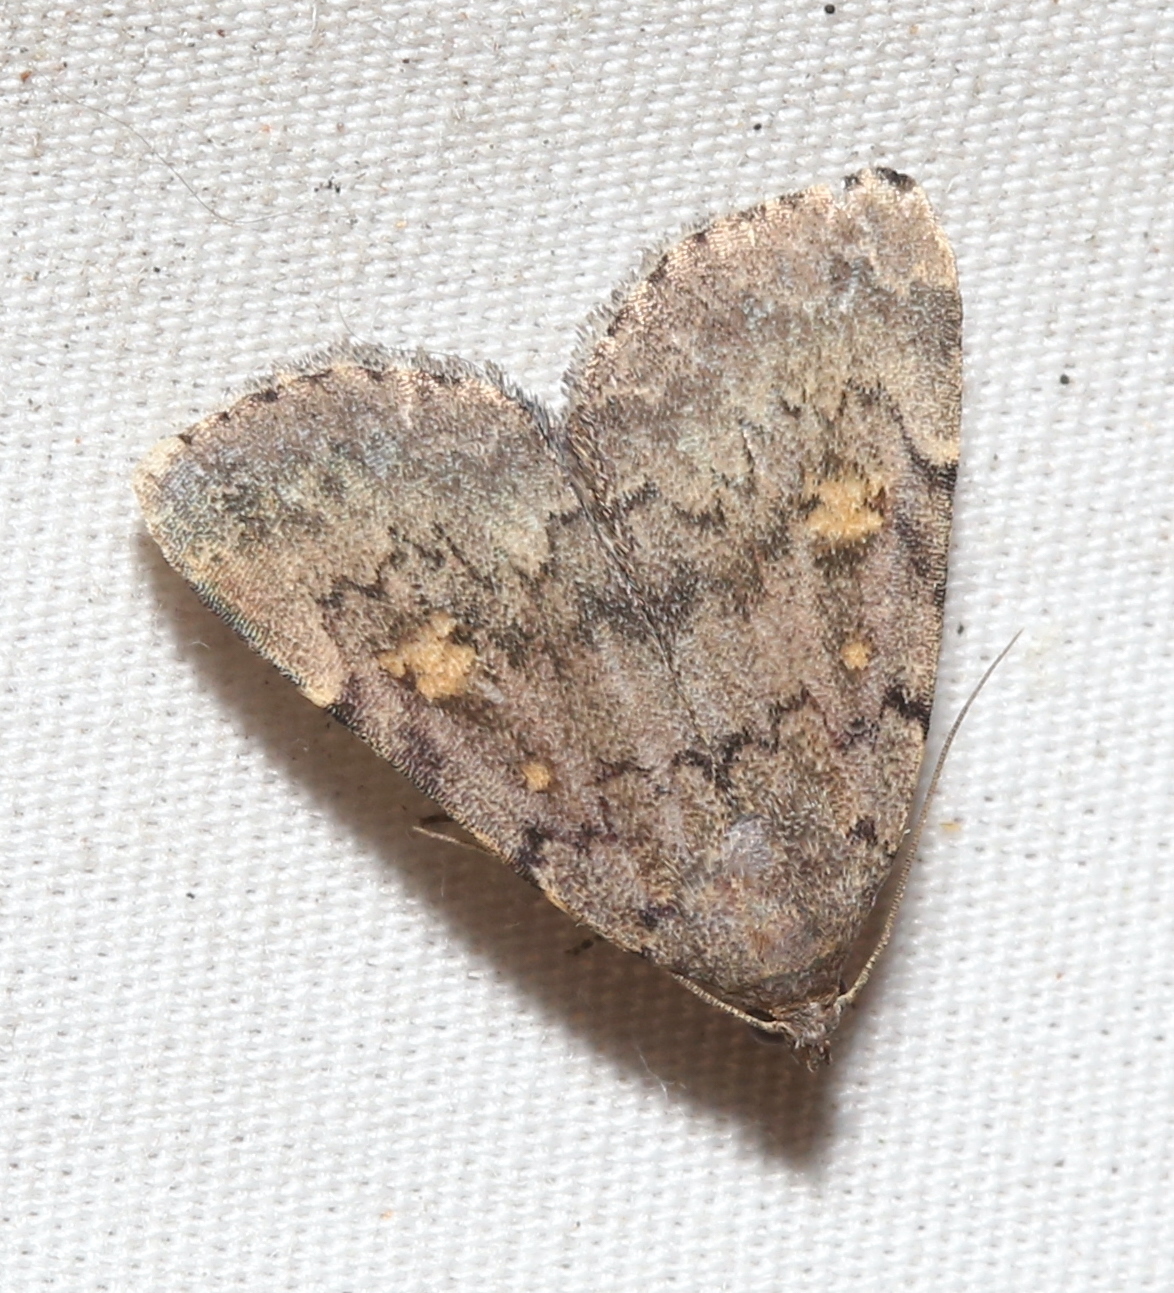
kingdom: Animalia
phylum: Arthropoda
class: Insecta
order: Lepidoptera
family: Erebidae
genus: Idia
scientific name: Idia aemula
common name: Common idia moth
